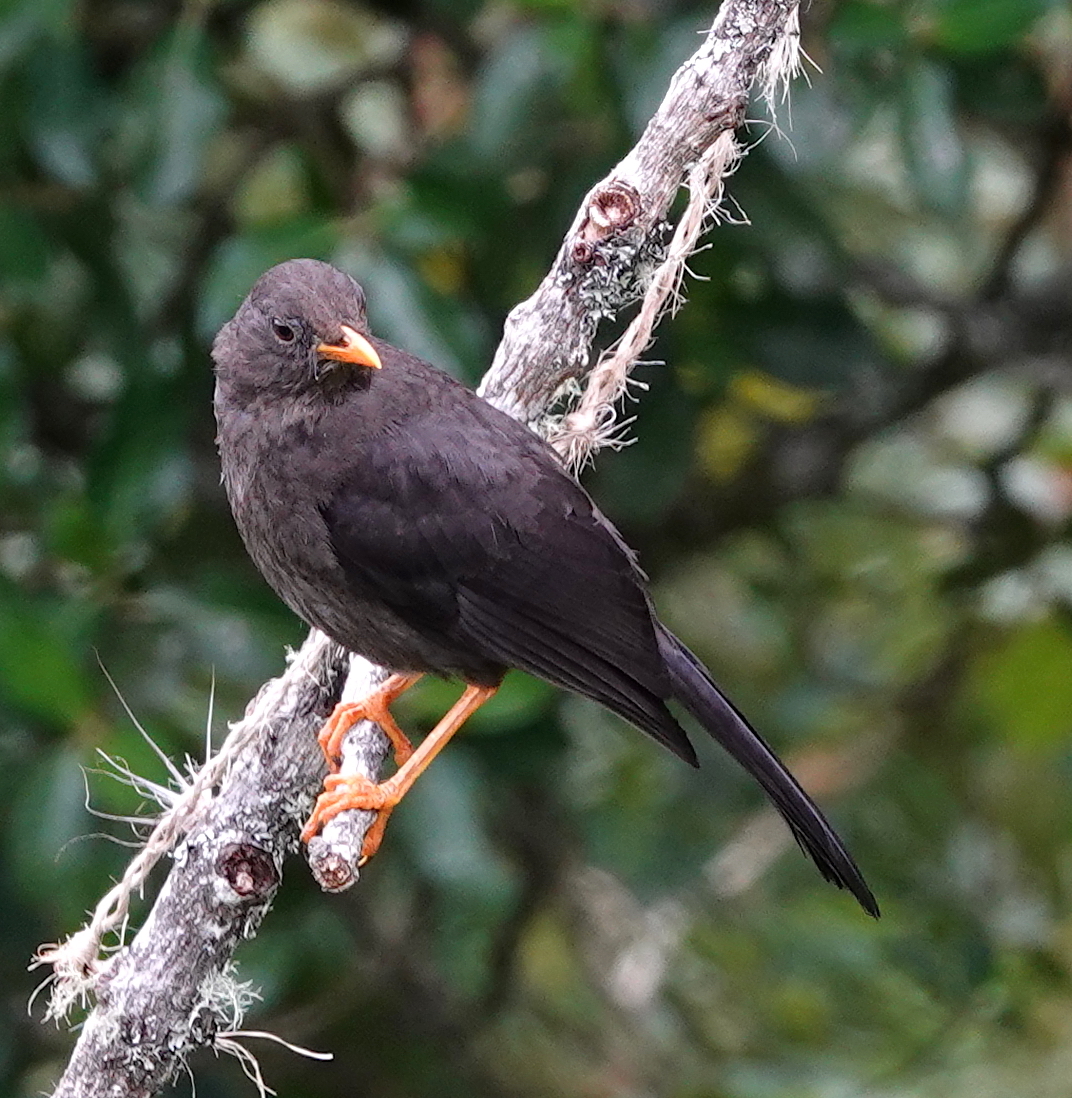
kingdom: Animalia
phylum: Chordata
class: Aves
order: Passeriformes
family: Turdidae
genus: Turdus
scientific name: Turdus fuscater
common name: Great thrush
